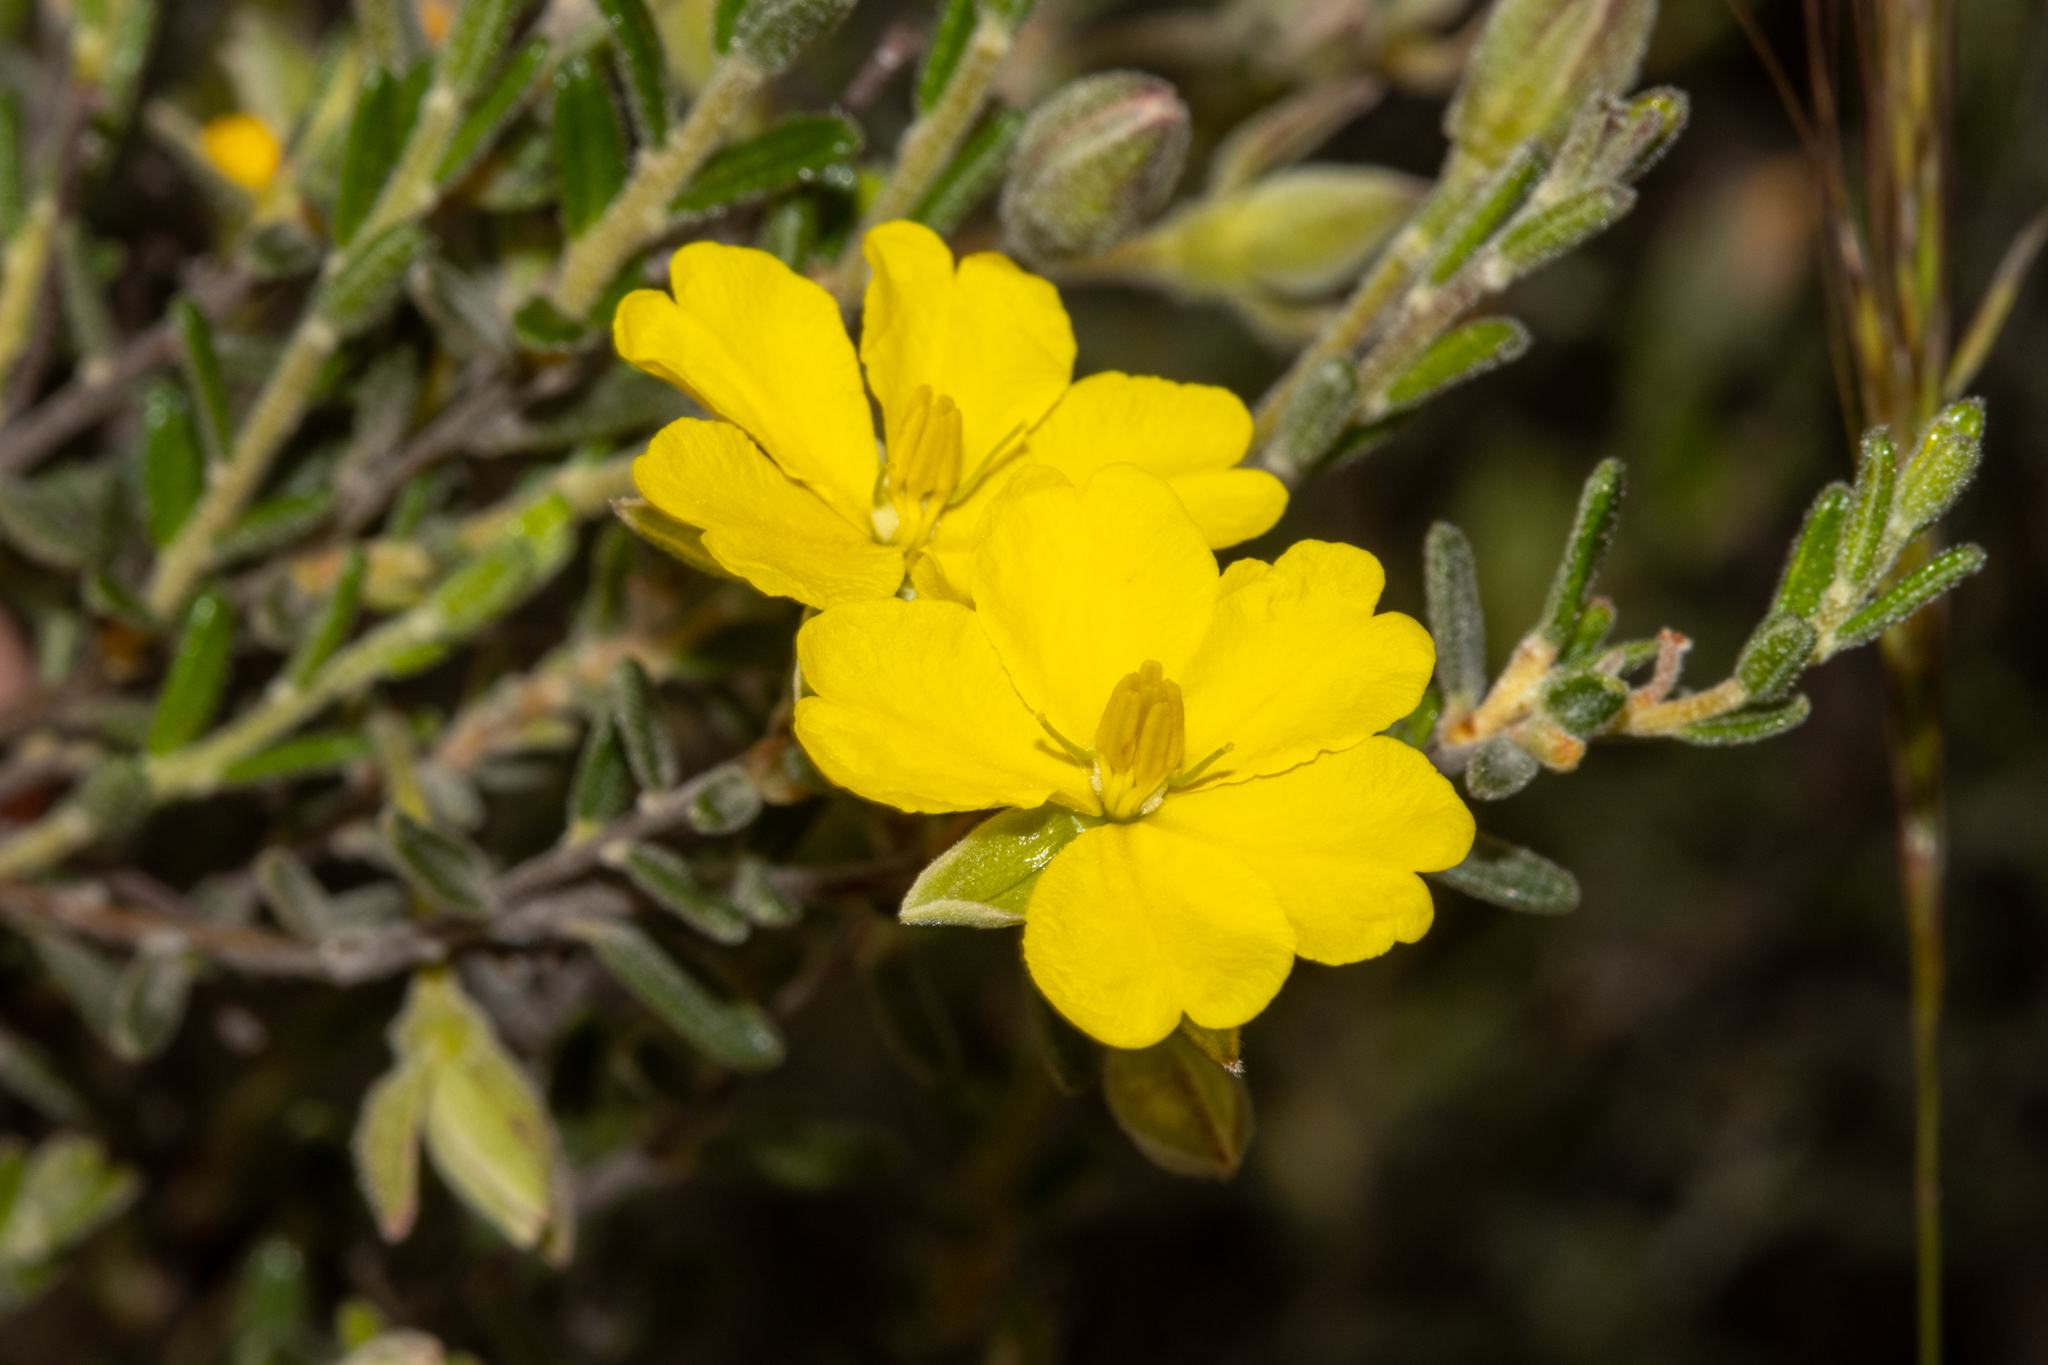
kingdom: Plantae
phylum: Tracheophyta
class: Magnoliopsida
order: Dilleniales
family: Dilleniaceae
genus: Hibbertia
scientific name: Hibbertia australis
